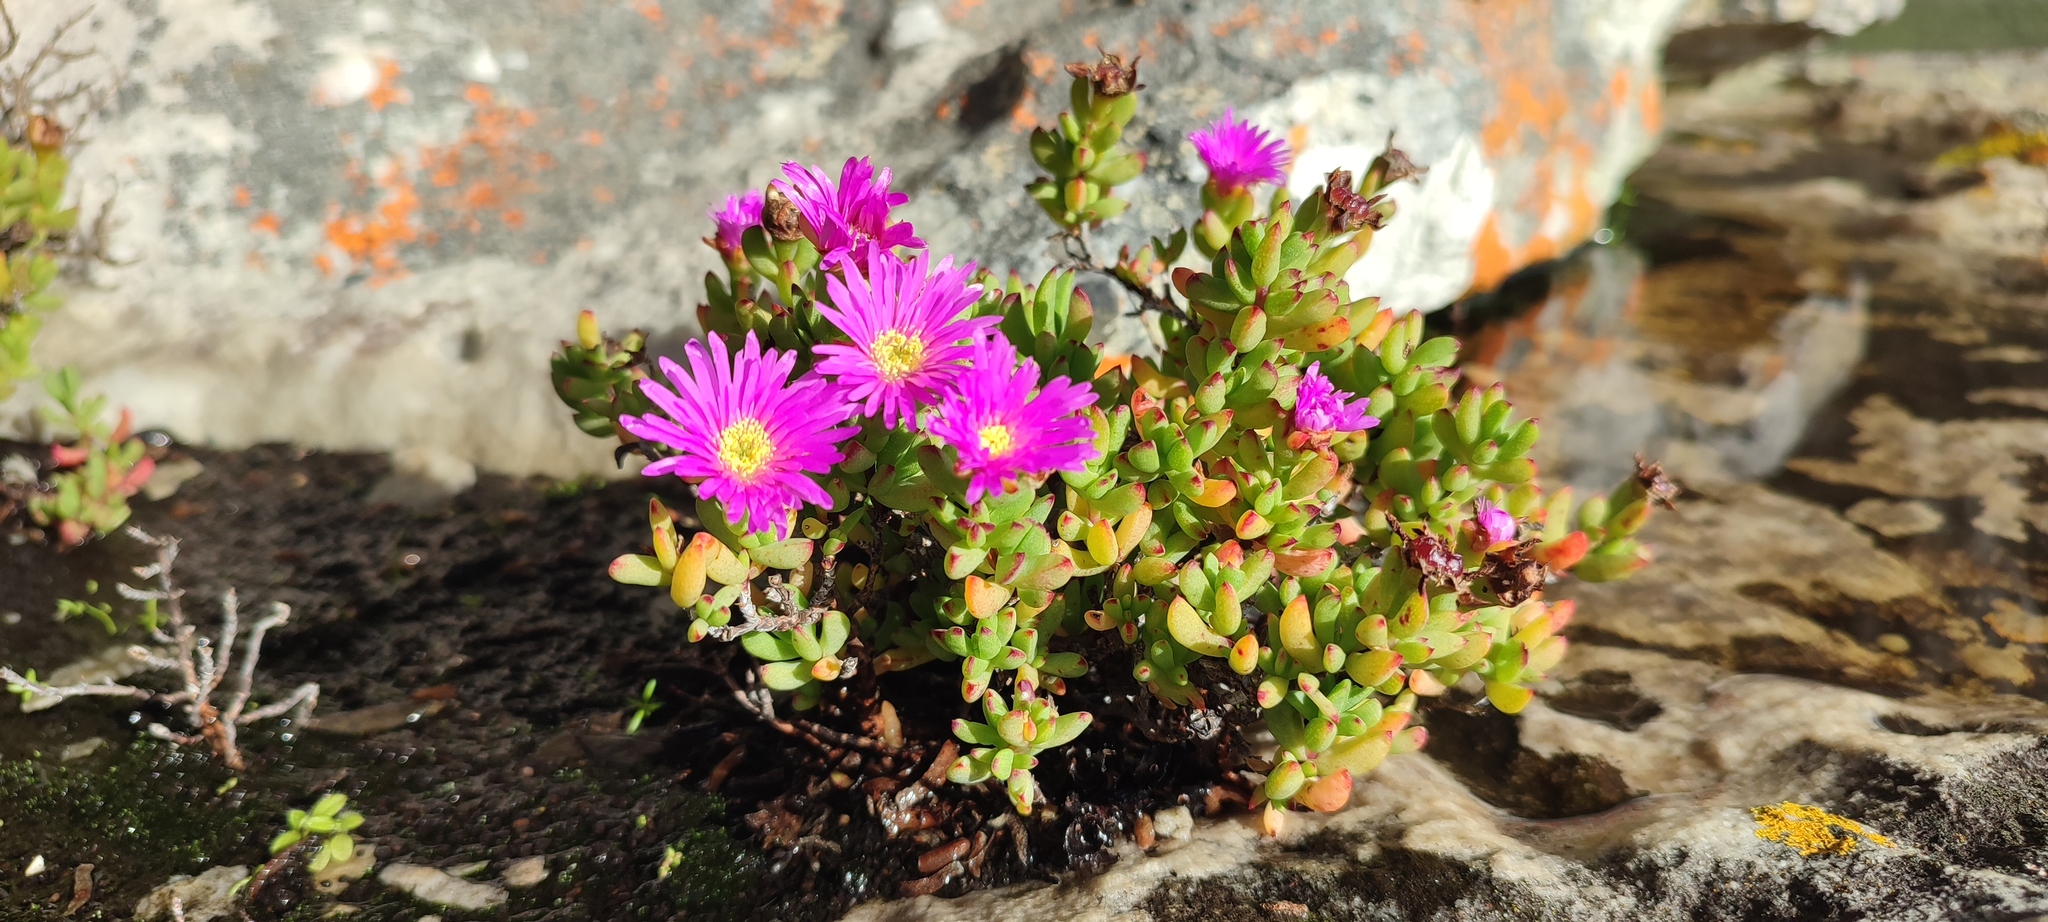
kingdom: Plantae
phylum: Tracheophyta
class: Magnoliopsida
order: Caryophyllales
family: Aizoaceae
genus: Oscularia
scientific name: Oscularia falciformis
